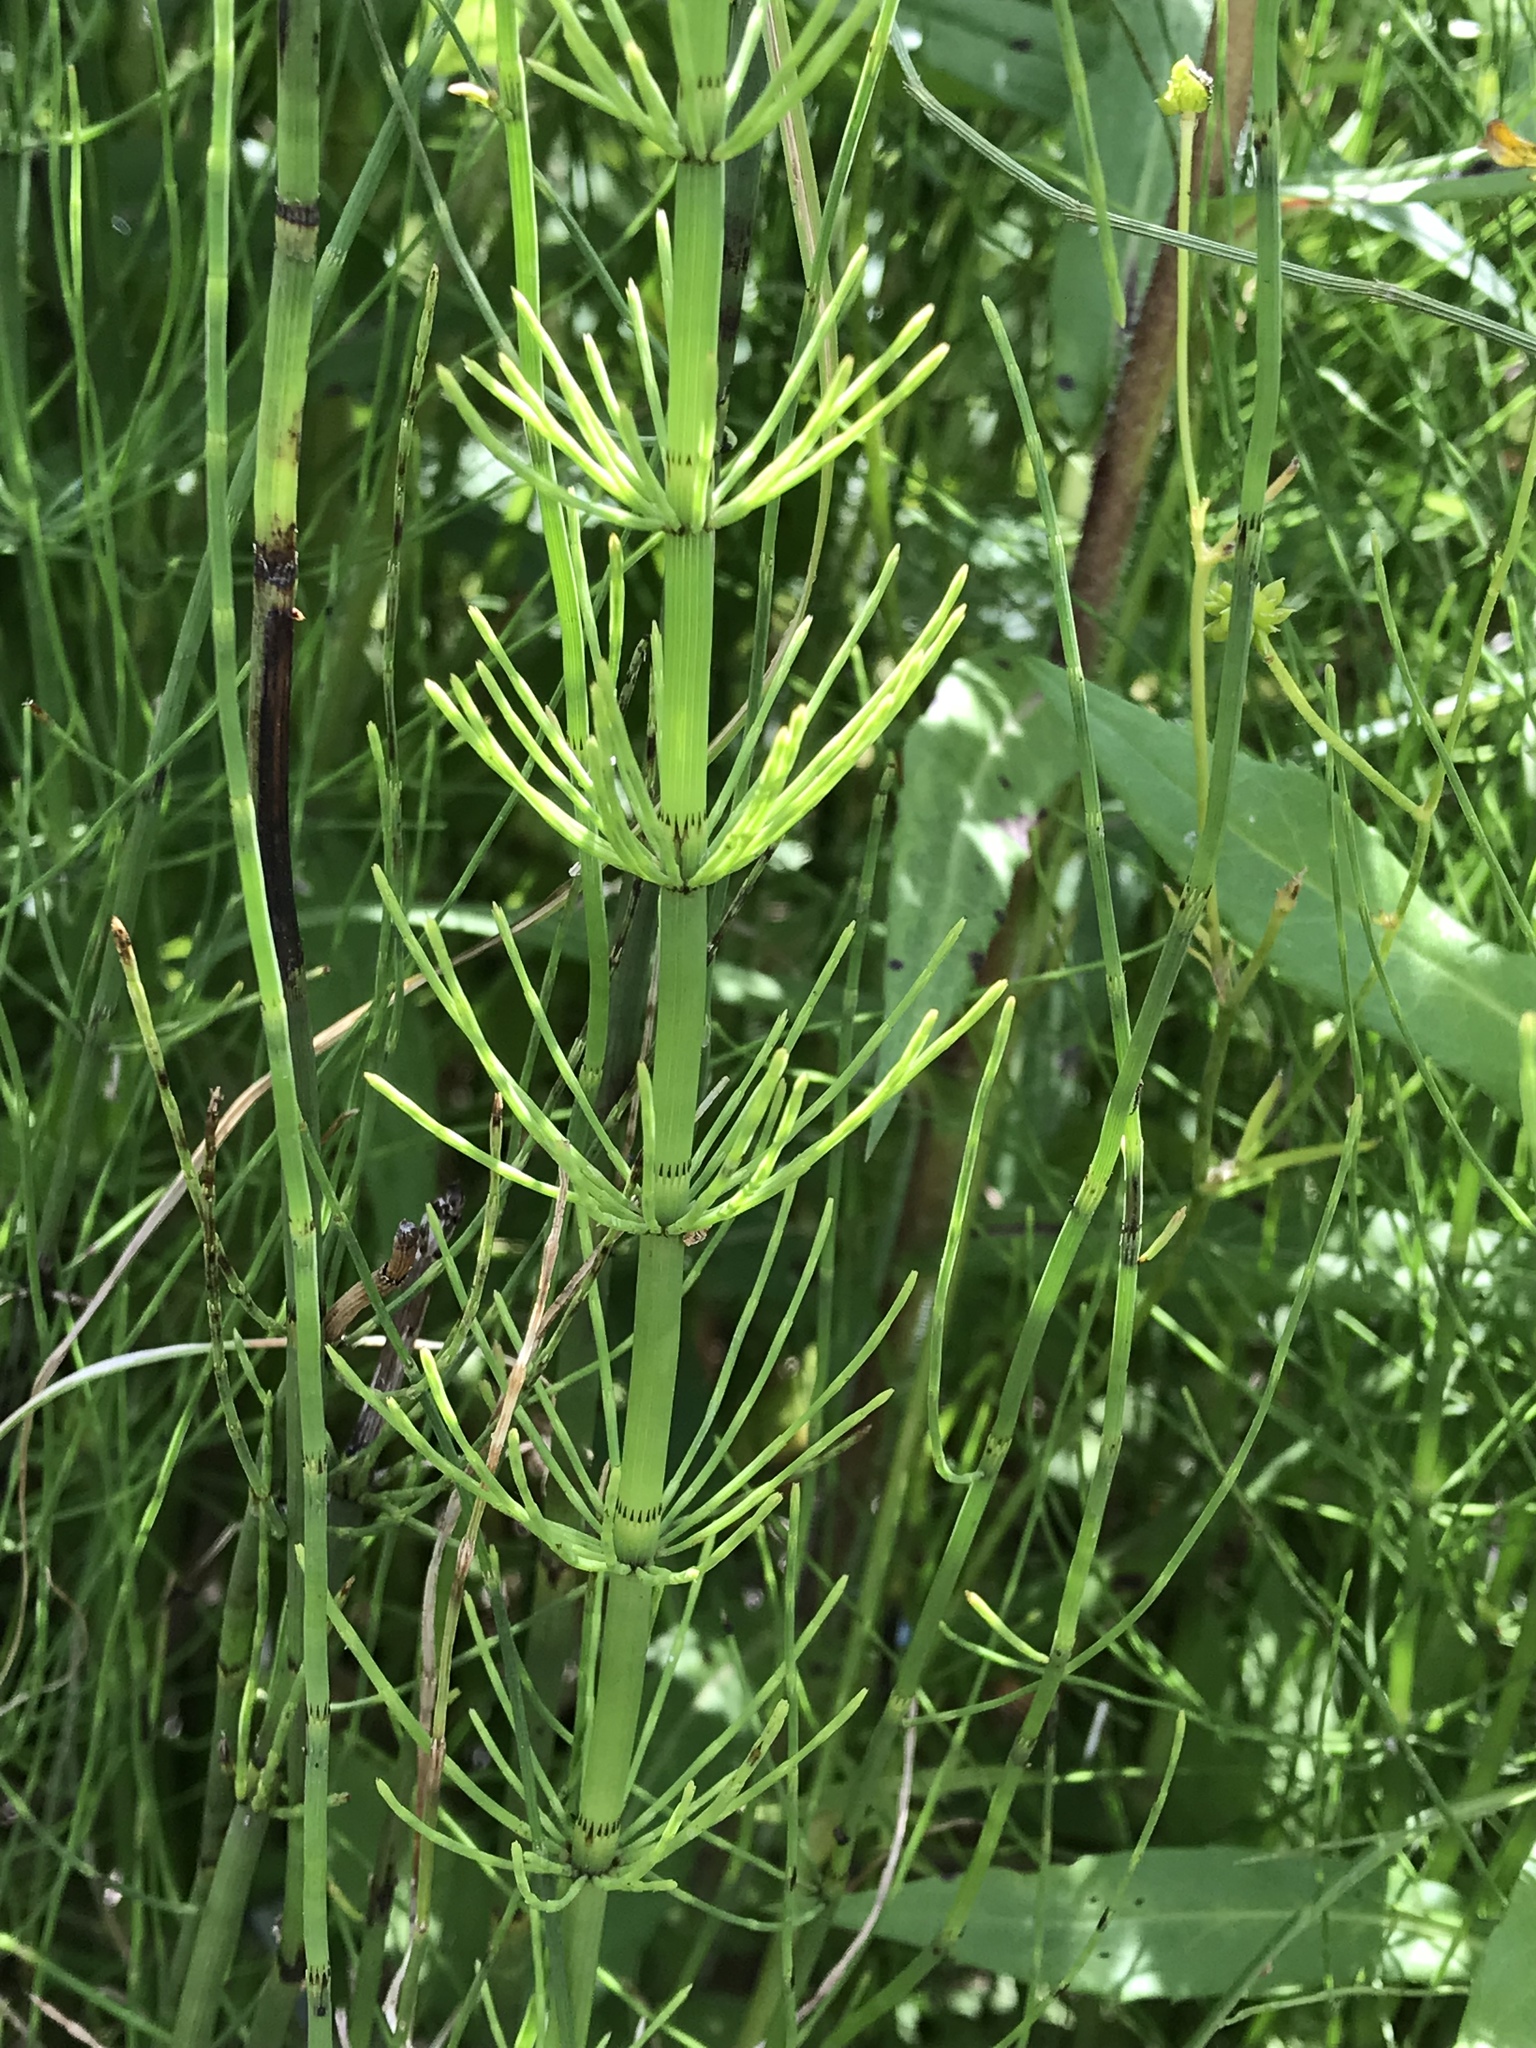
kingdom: Plantae
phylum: Tracheophyta
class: Polypodiopsida
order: Equisetales
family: Equisetaceae
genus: Equisetum
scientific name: Equisetum fluviatile
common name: Water horsetail
